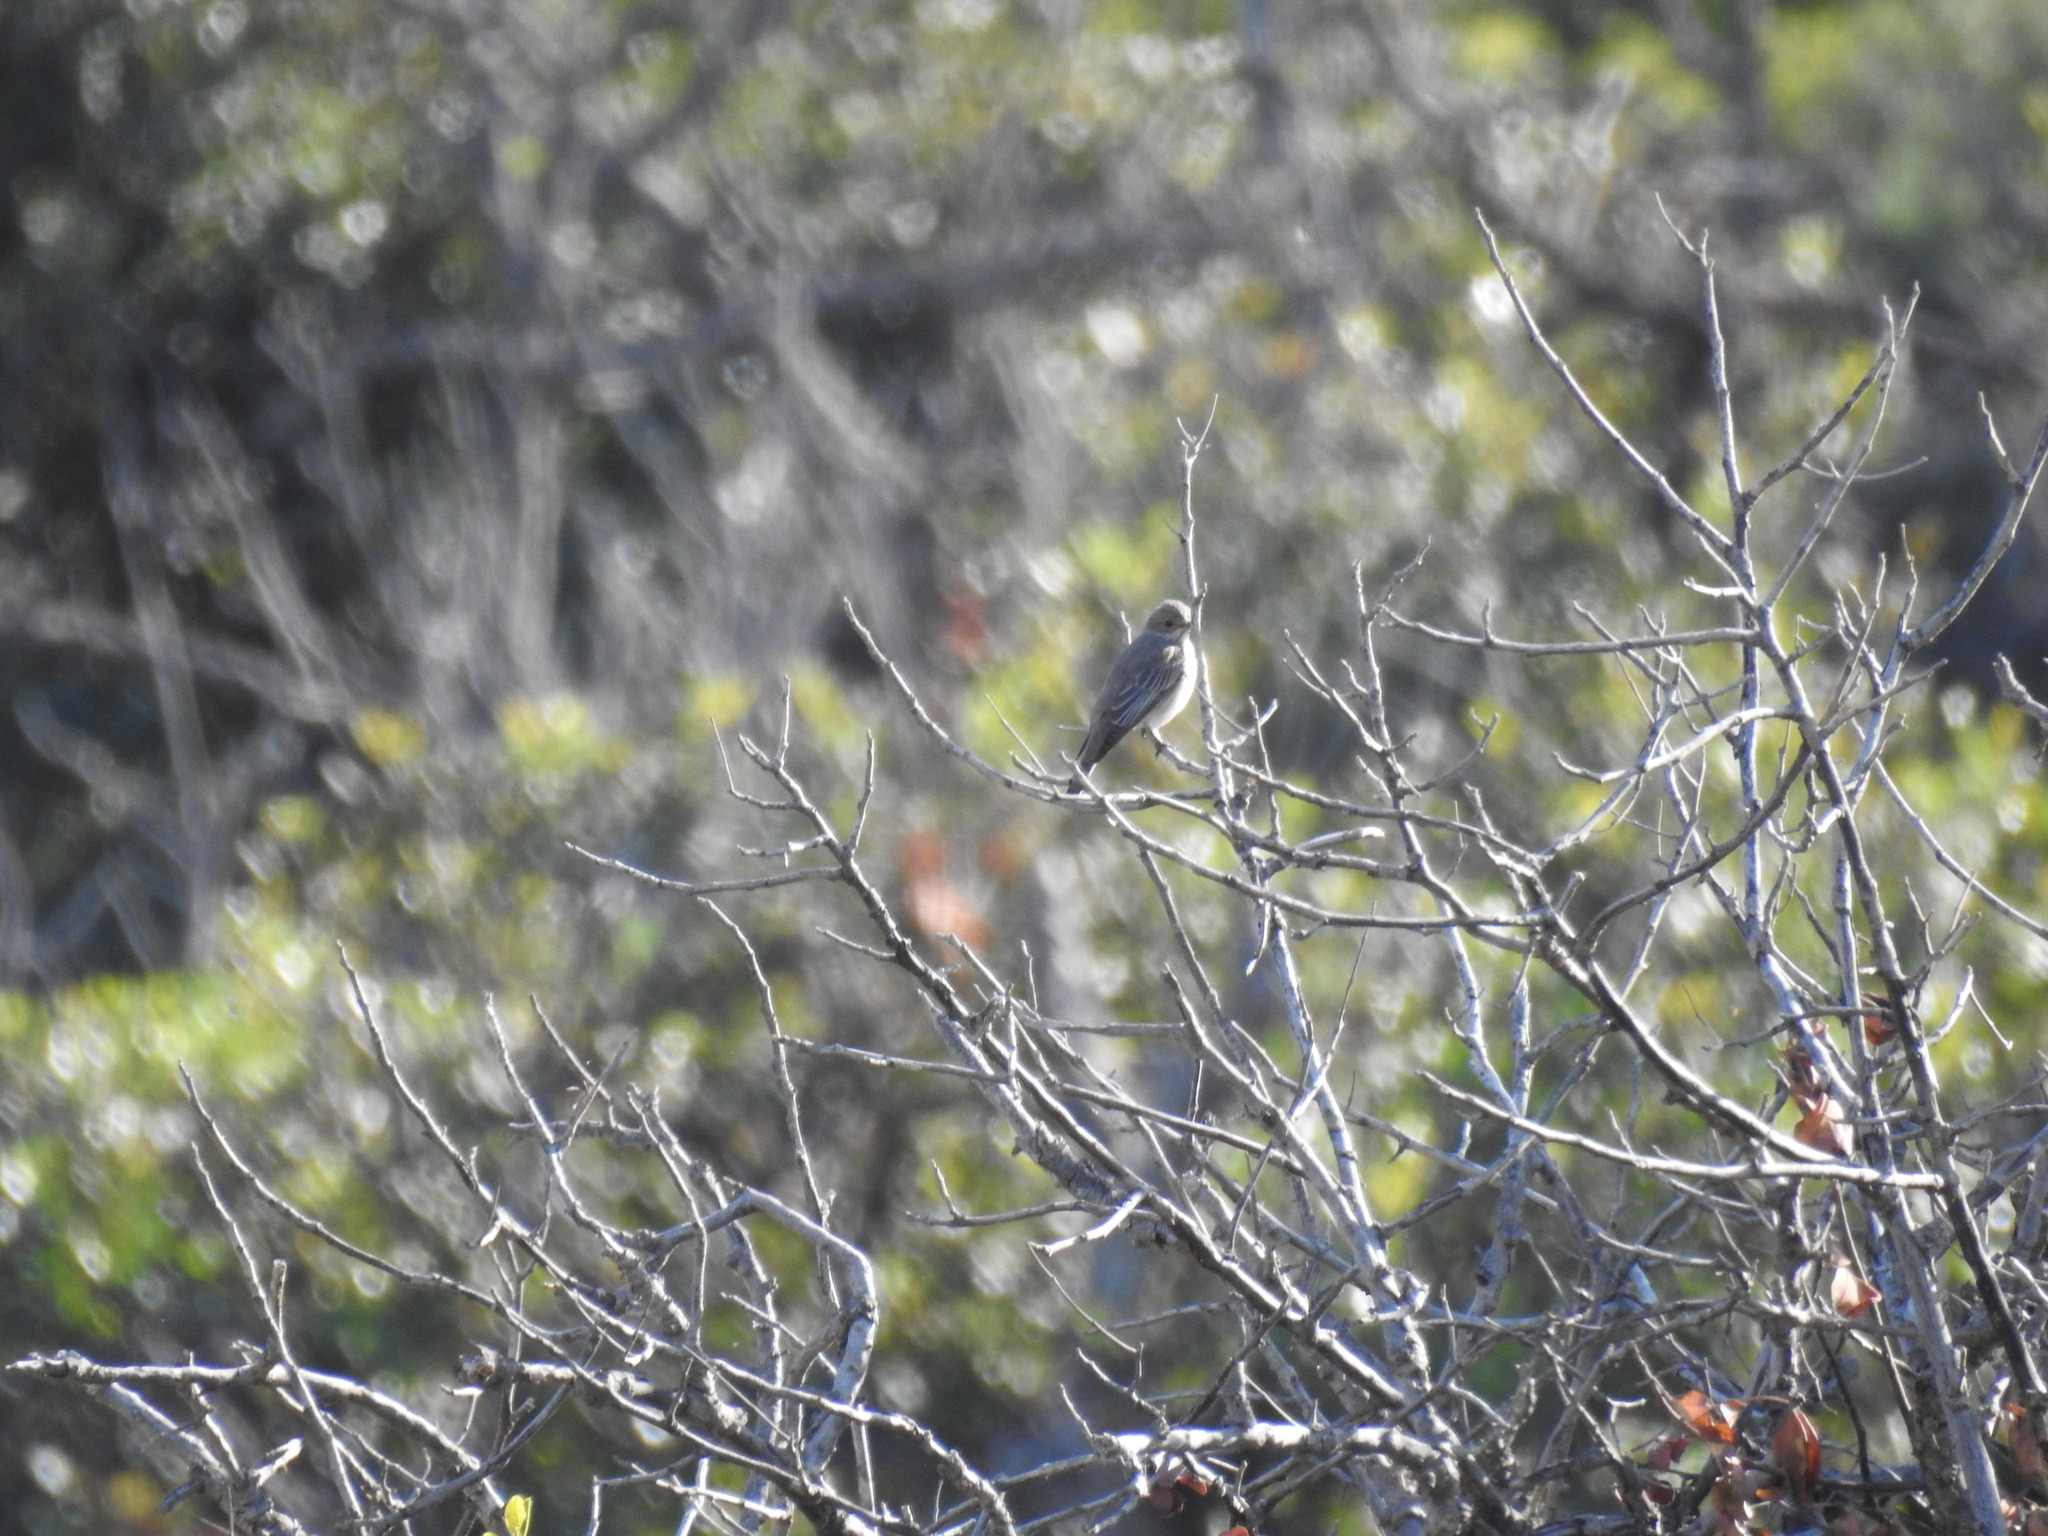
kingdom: Animalia
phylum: Chordata
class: Aves
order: Passeriformes
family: Muscicapidae
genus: Muscicapa
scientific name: Muscicapa striata
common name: Spotted flycatcher
